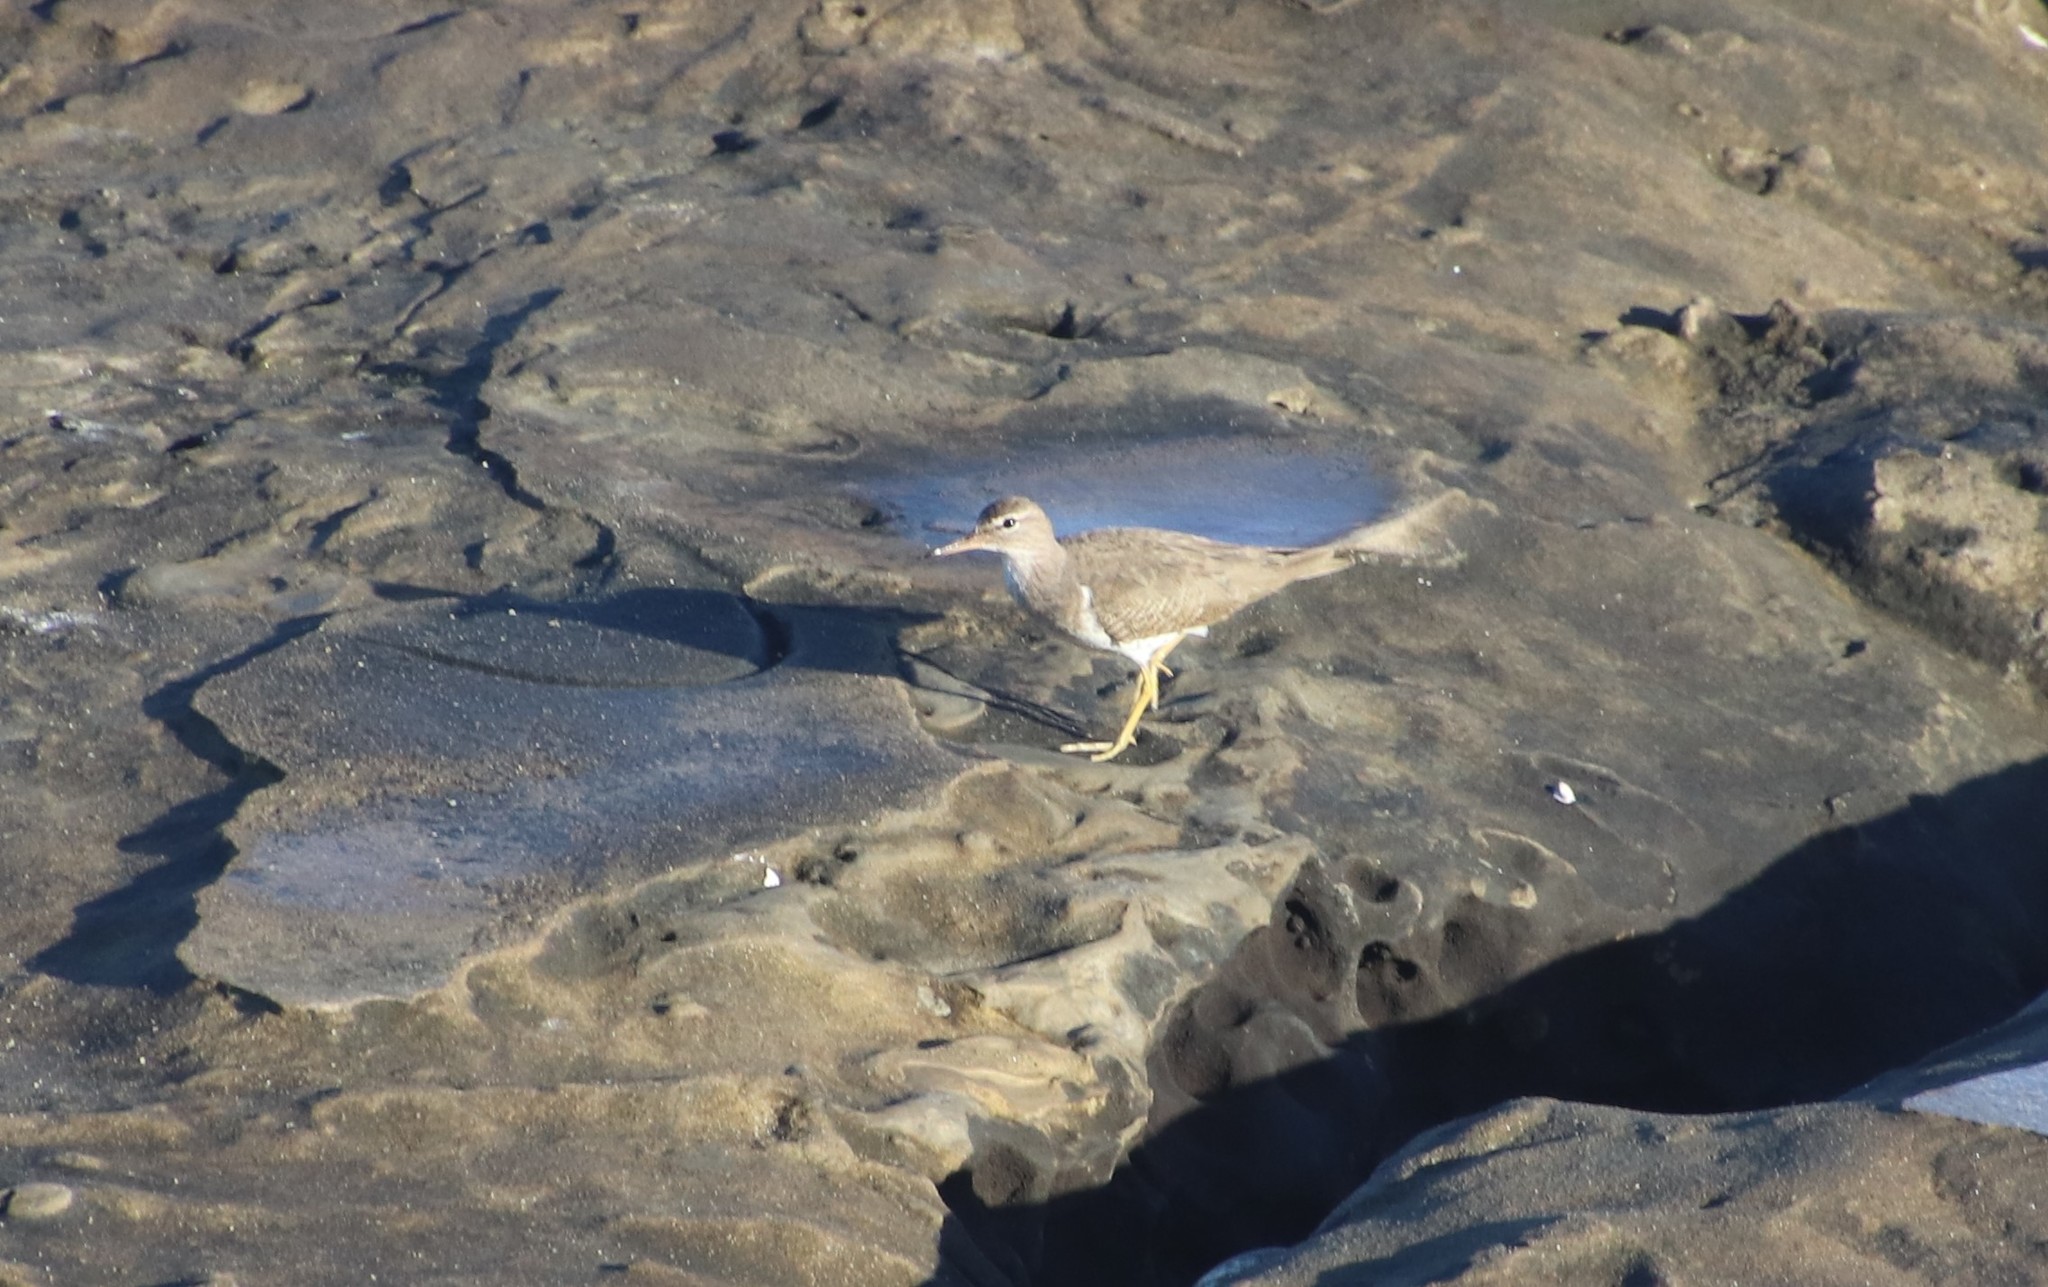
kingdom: Animalia
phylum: Chordata
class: Aves
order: Charadriiformes
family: Scolopacidae
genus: Actitis
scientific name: Actitis macularius
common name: Spotted sandpiper
